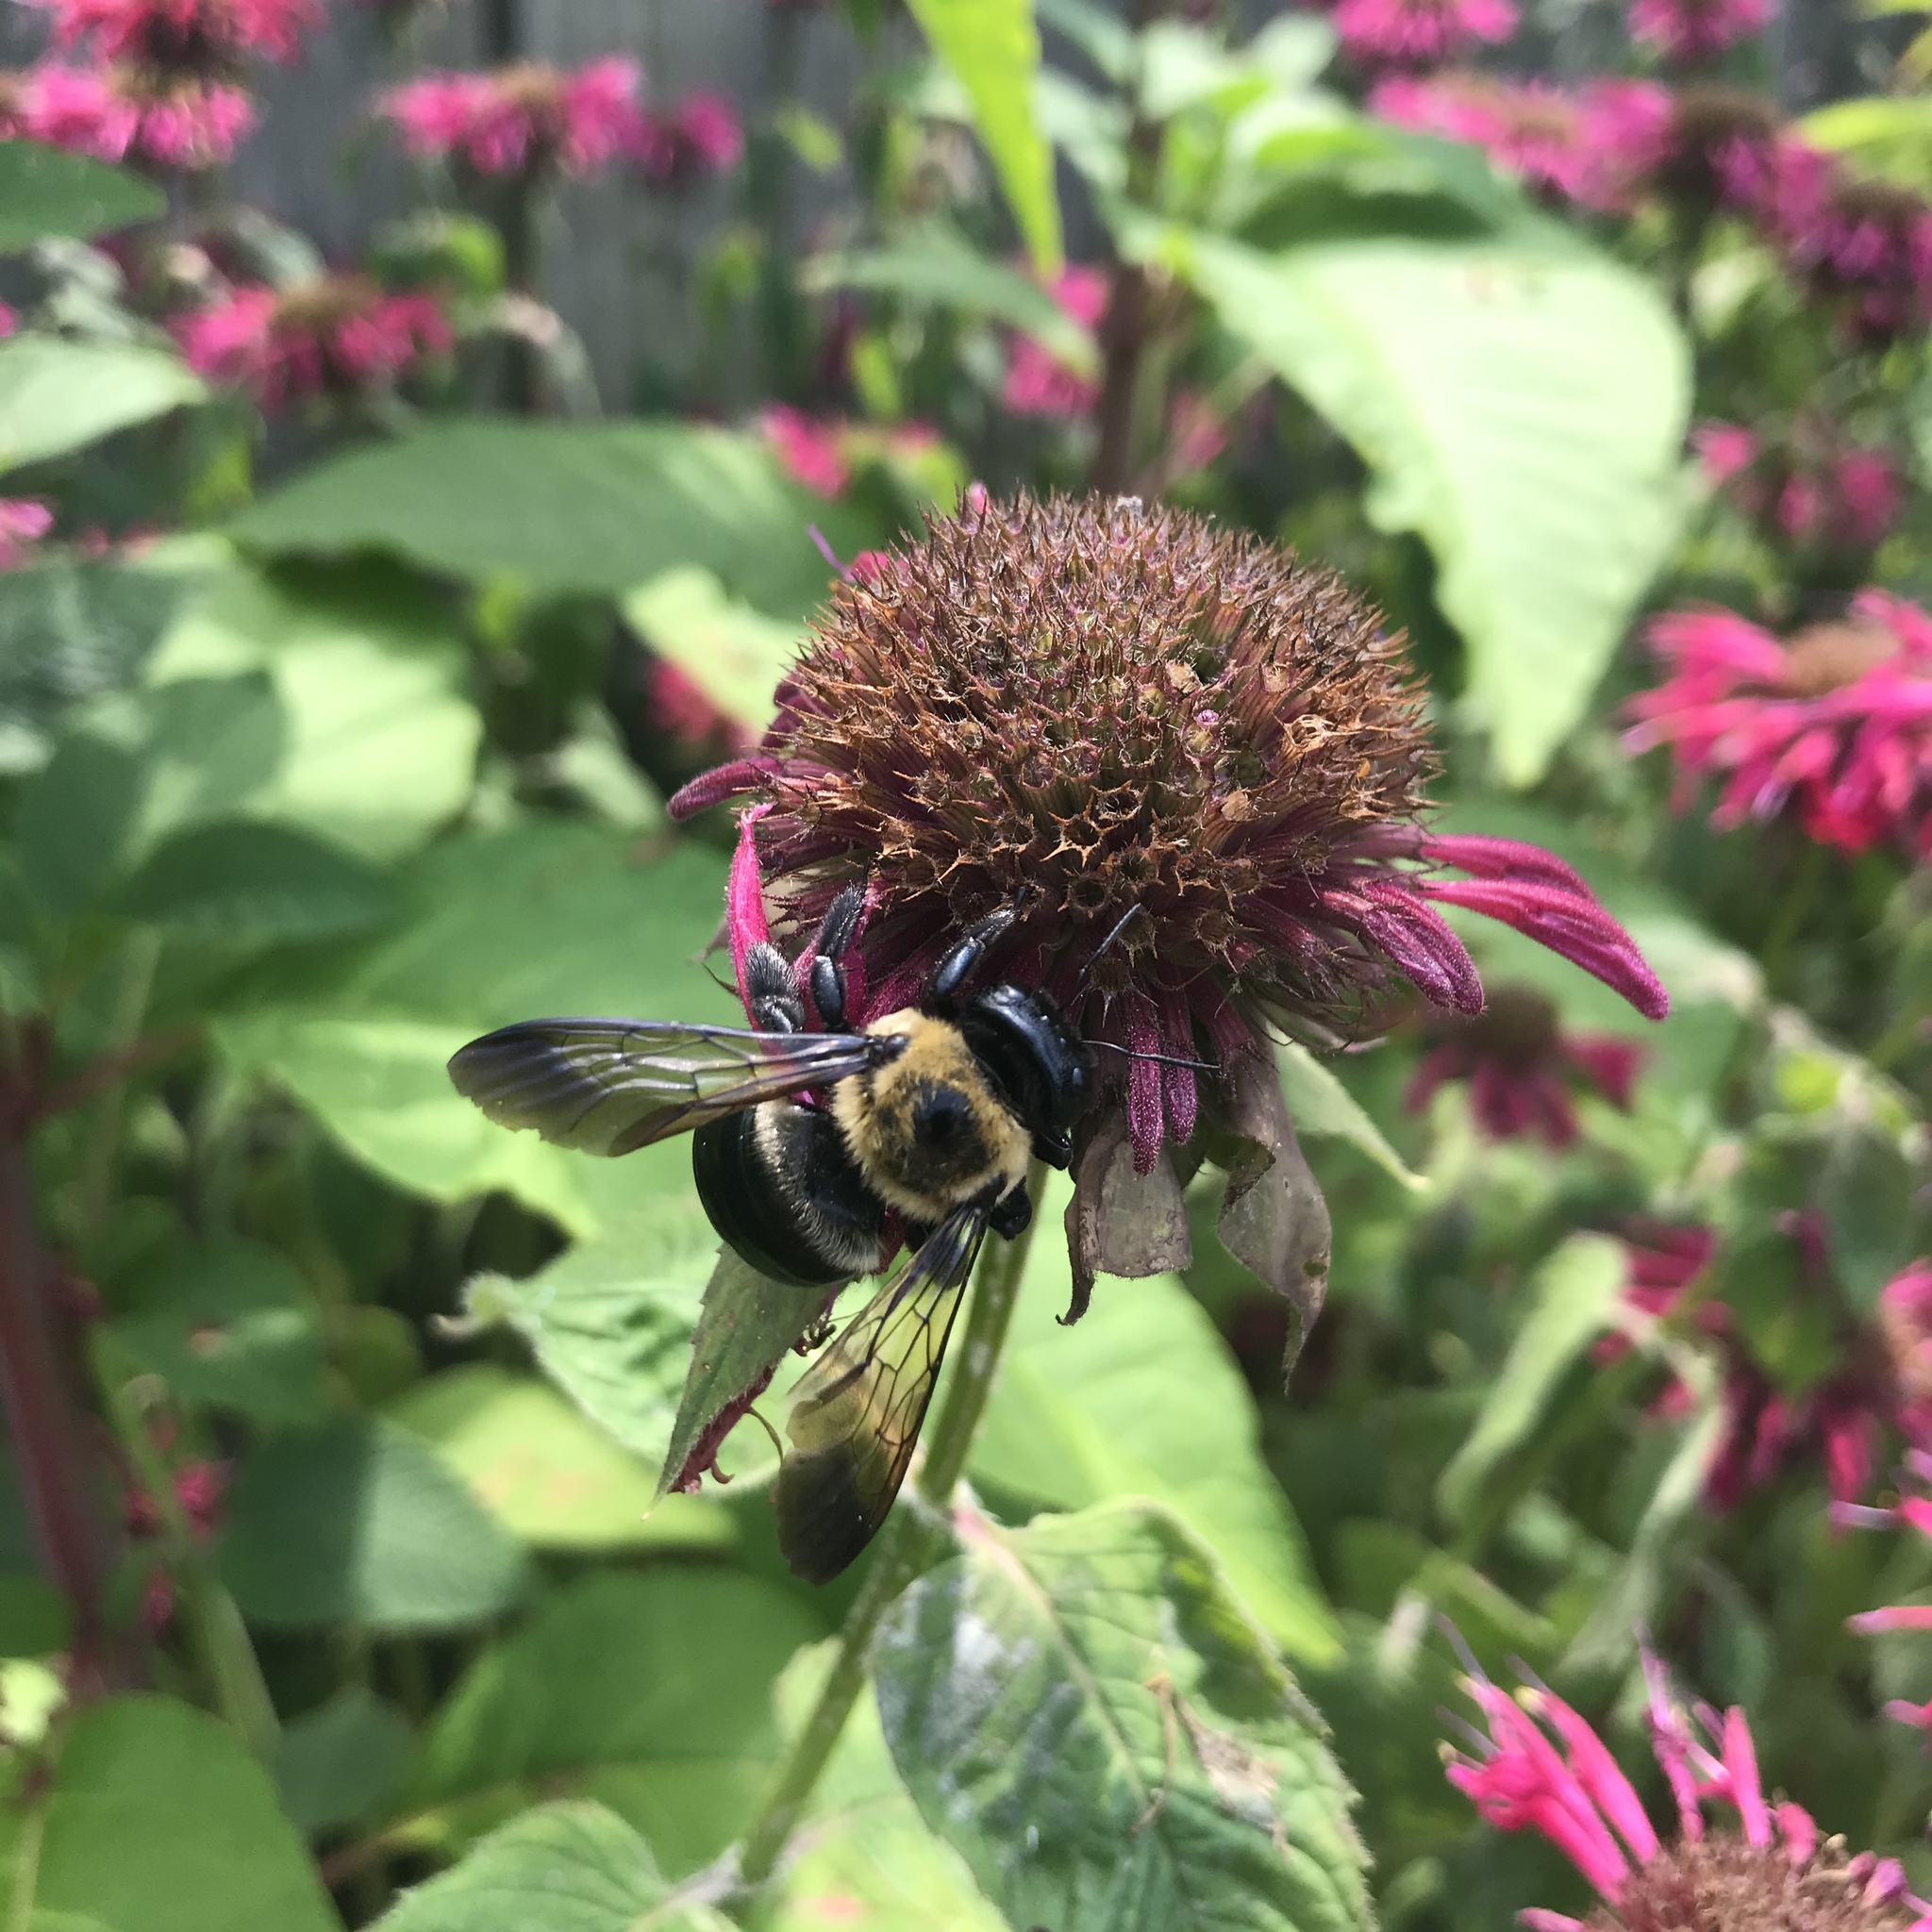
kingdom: Animalia
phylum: Arthropoda
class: Insecta
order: Hymenoptera
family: Apidae
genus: Xylocopa
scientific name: Xylocopa virginica
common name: Carpenter bee
